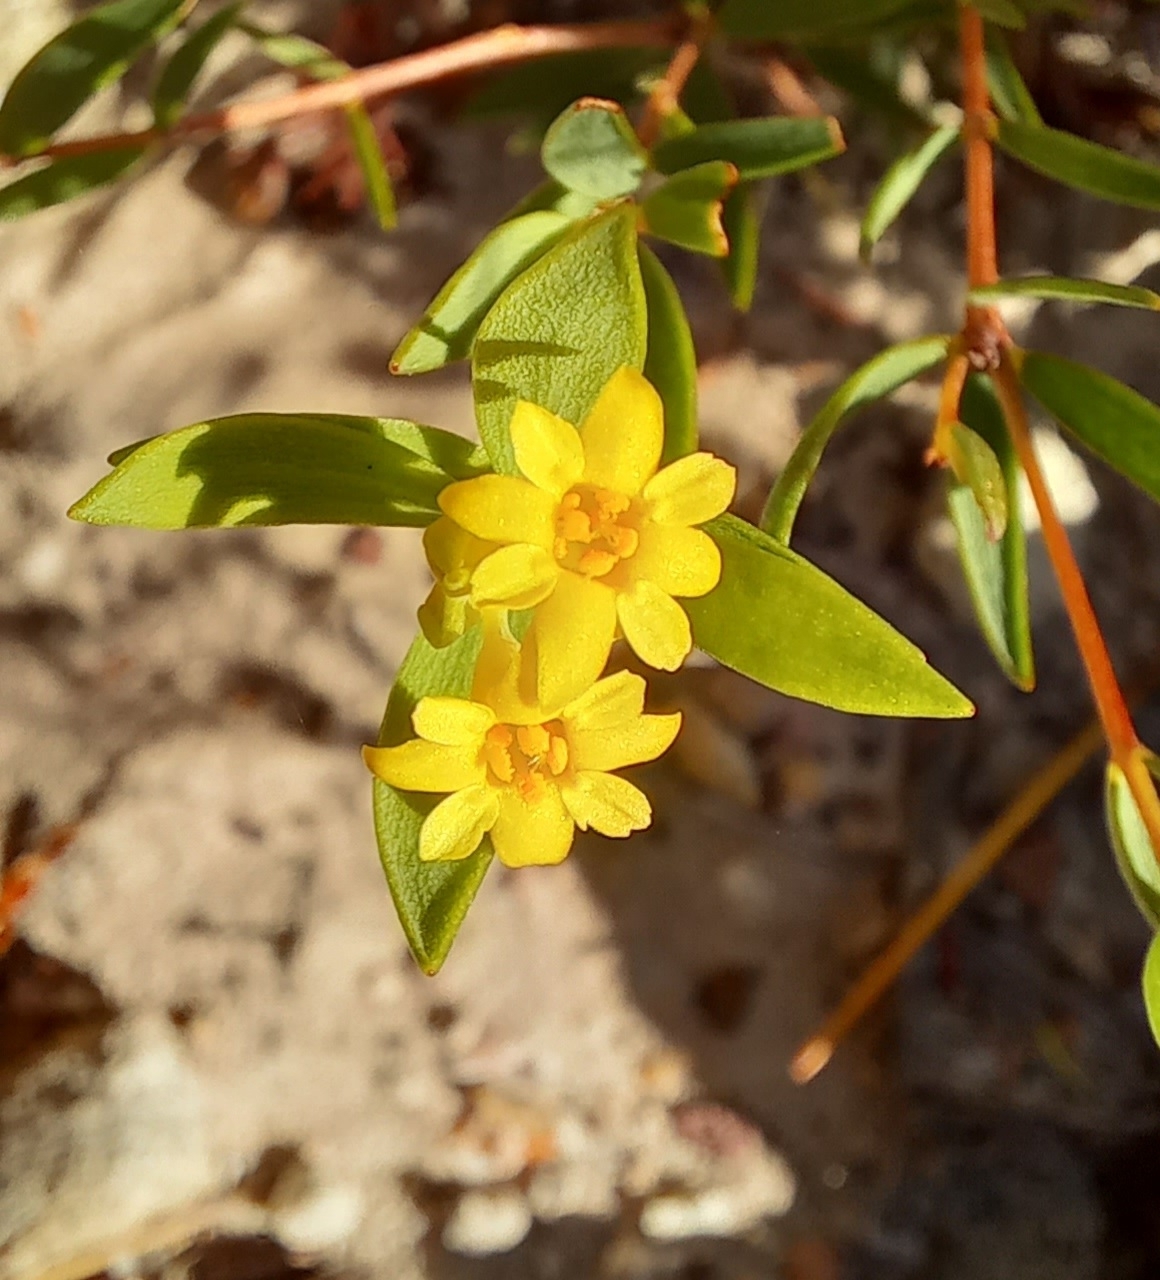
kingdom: Plantae
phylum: Tracheophyta
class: Magnoliopsida
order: Malvales
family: Thymelaeaceae
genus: Gnidia
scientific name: Gnidia juniperifolia
